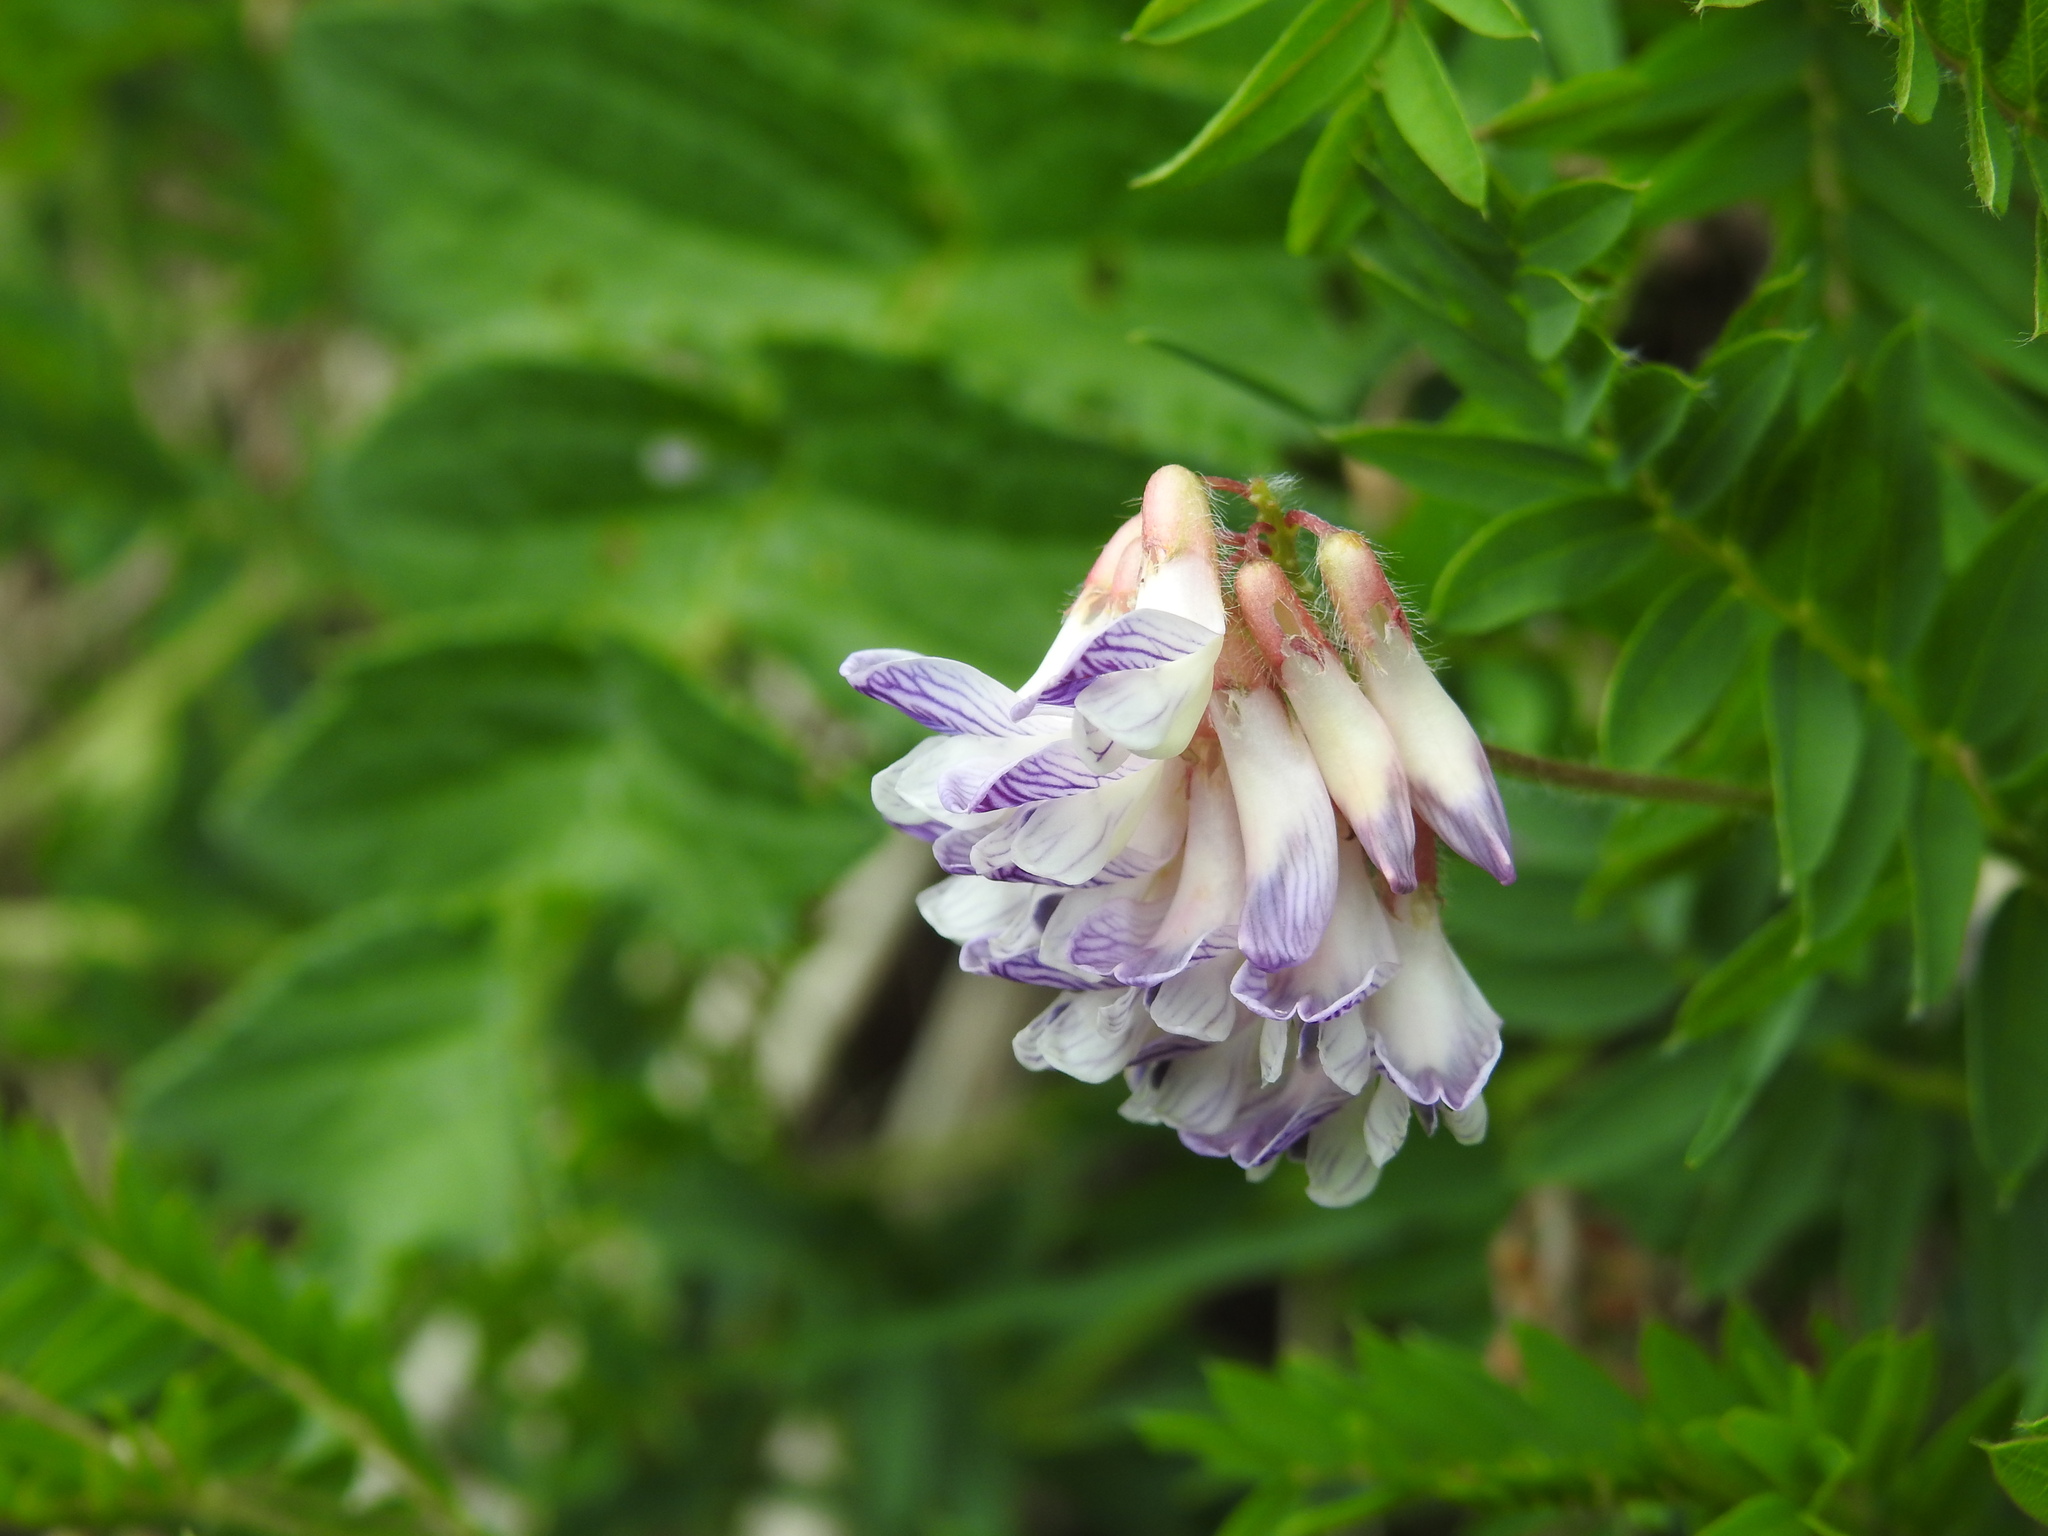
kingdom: Plantae
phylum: Tracheophyta
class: Magnoliopsida
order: Fabales
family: Fabaceae
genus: Vicia
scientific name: Vicia orobus
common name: Wood bitter-vetch
